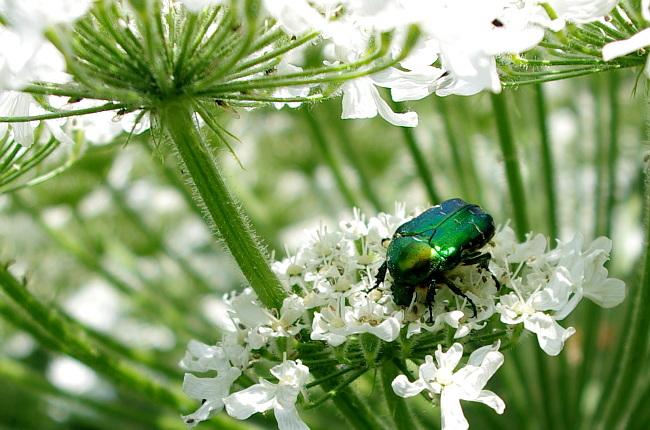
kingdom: Animalia
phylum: Arthropoda
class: Insecta
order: Coleoptera
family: Scarabaeidae
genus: Cetonia
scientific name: Cetonia aurata
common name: Rose chafer
